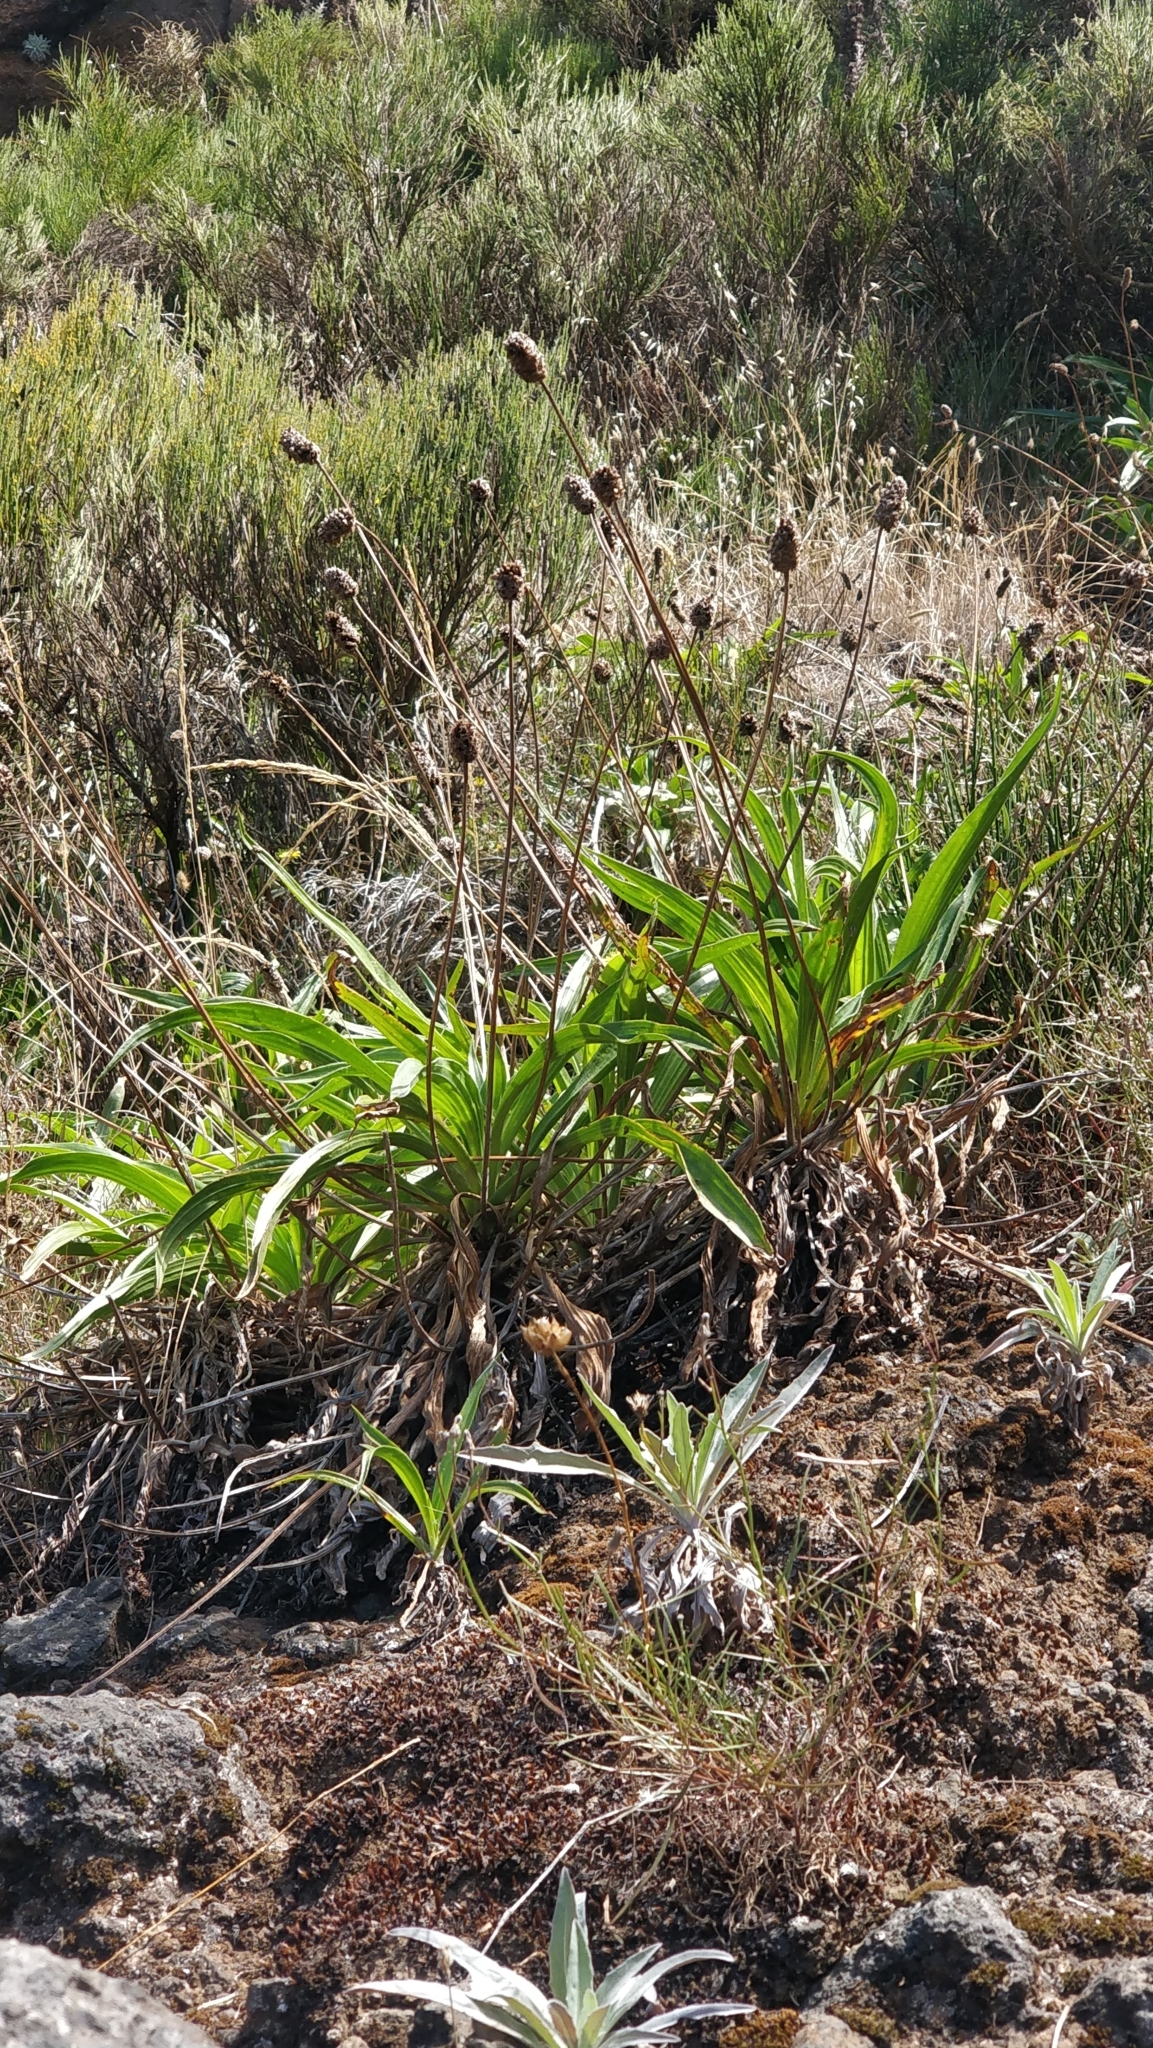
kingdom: Plantae
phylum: Tracheophyta
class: Magnoliopsida
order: Lamiales
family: Plantaginaceae
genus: Plantago
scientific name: Plantago malato-belizii
